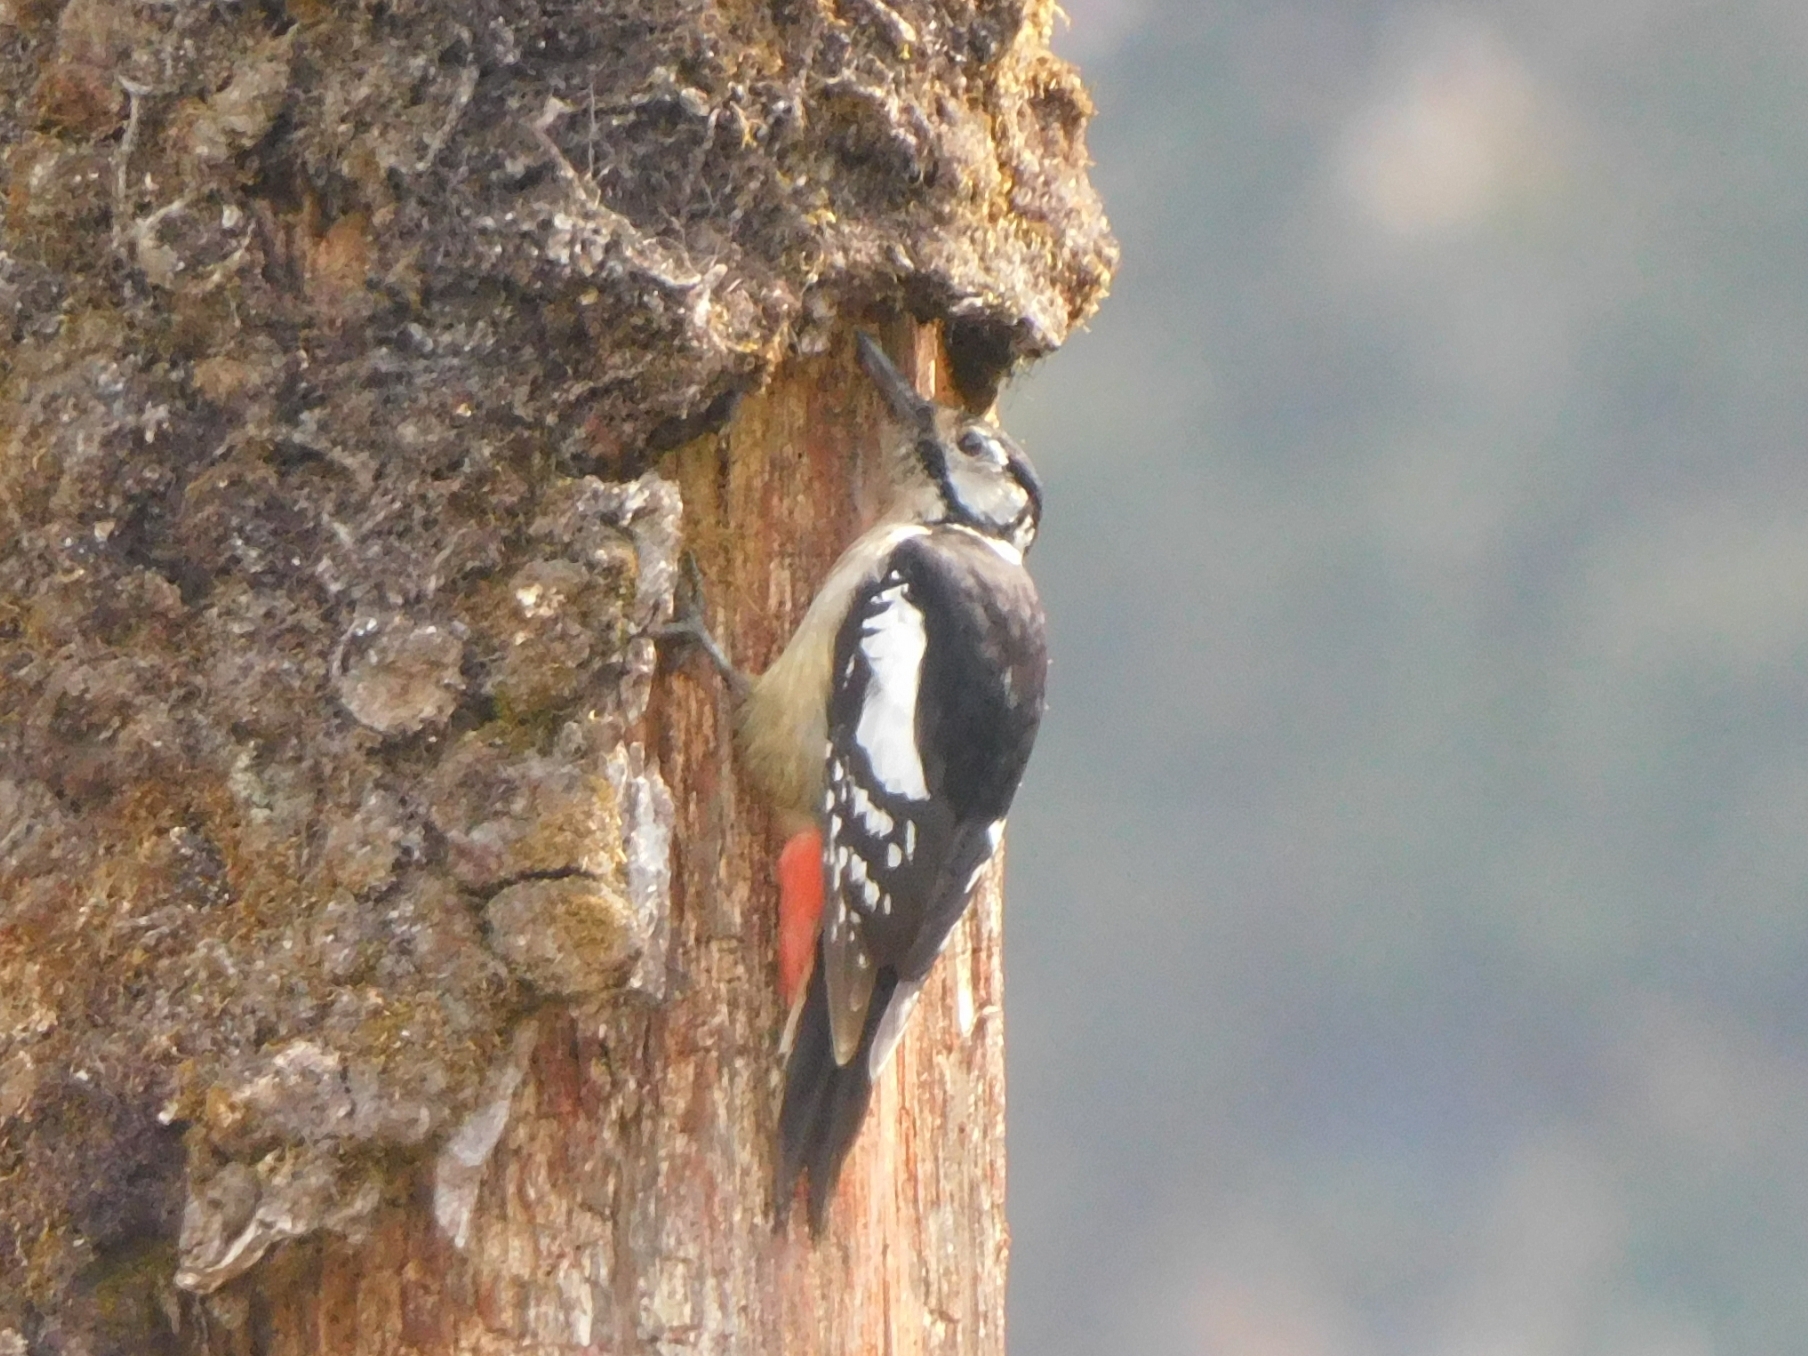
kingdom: Animalia
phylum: Chordata
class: Aves
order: Piciformes
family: Picidae
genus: Dendrocopos
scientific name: Dendrocopos himalayensis
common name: Himalayan woodpecker
